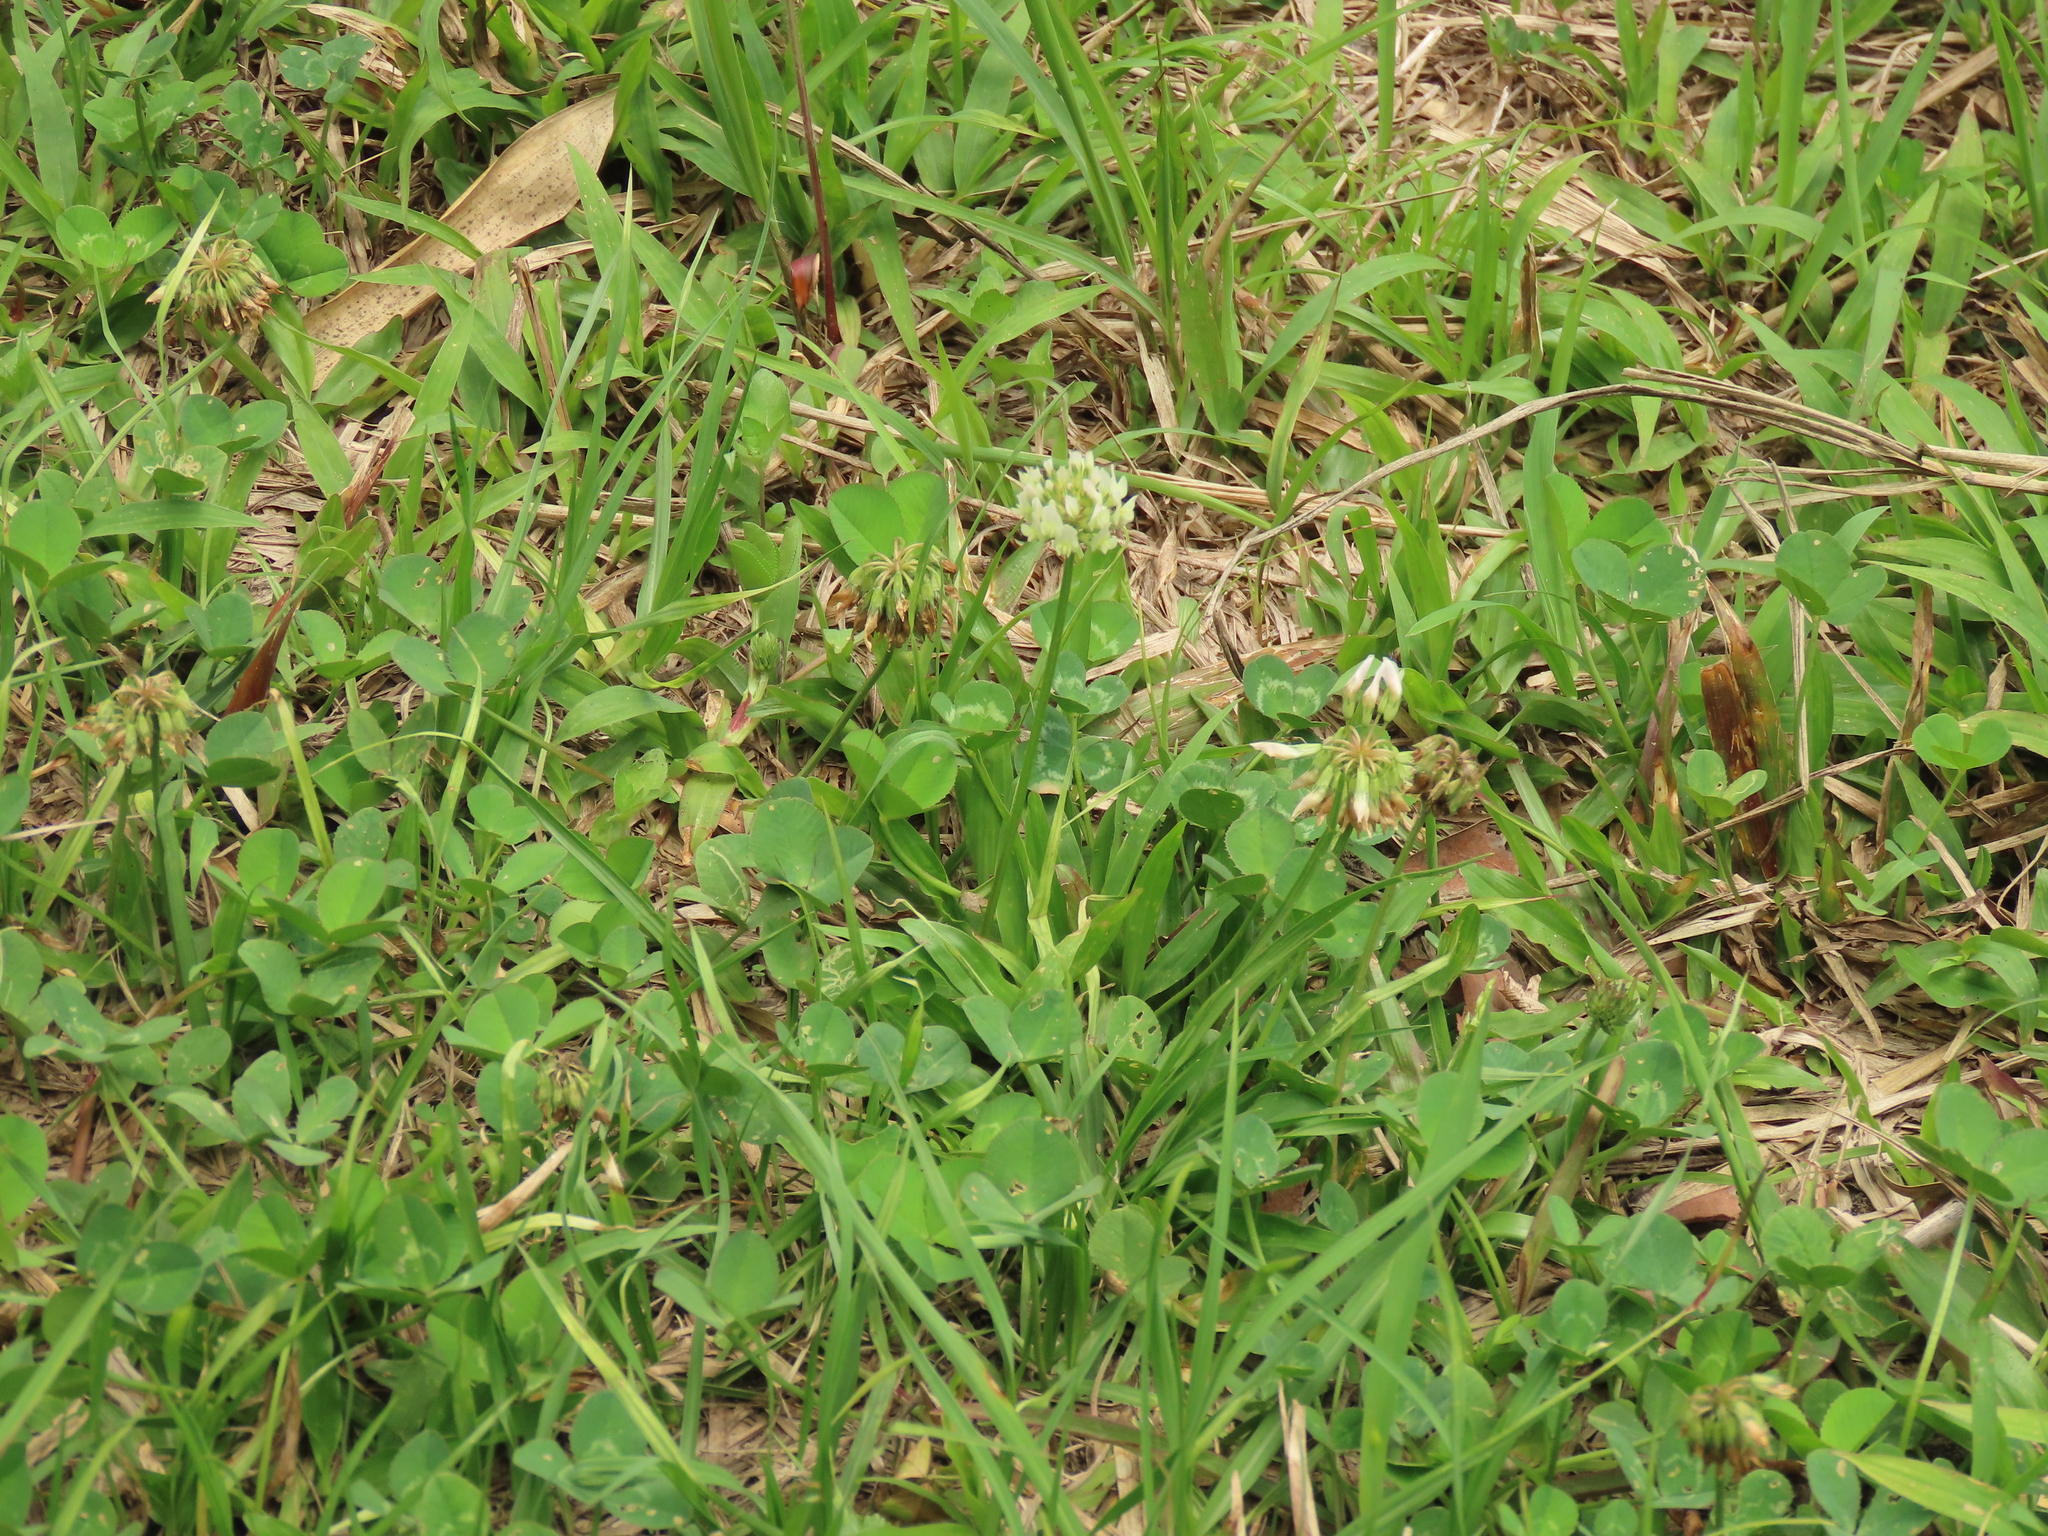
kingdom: Plantae
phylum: Tracheophyta
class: Magnoliopsida
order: Fabales
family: Fabaceae
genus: Trifolium
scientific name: Trifolium repens
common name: White clover
